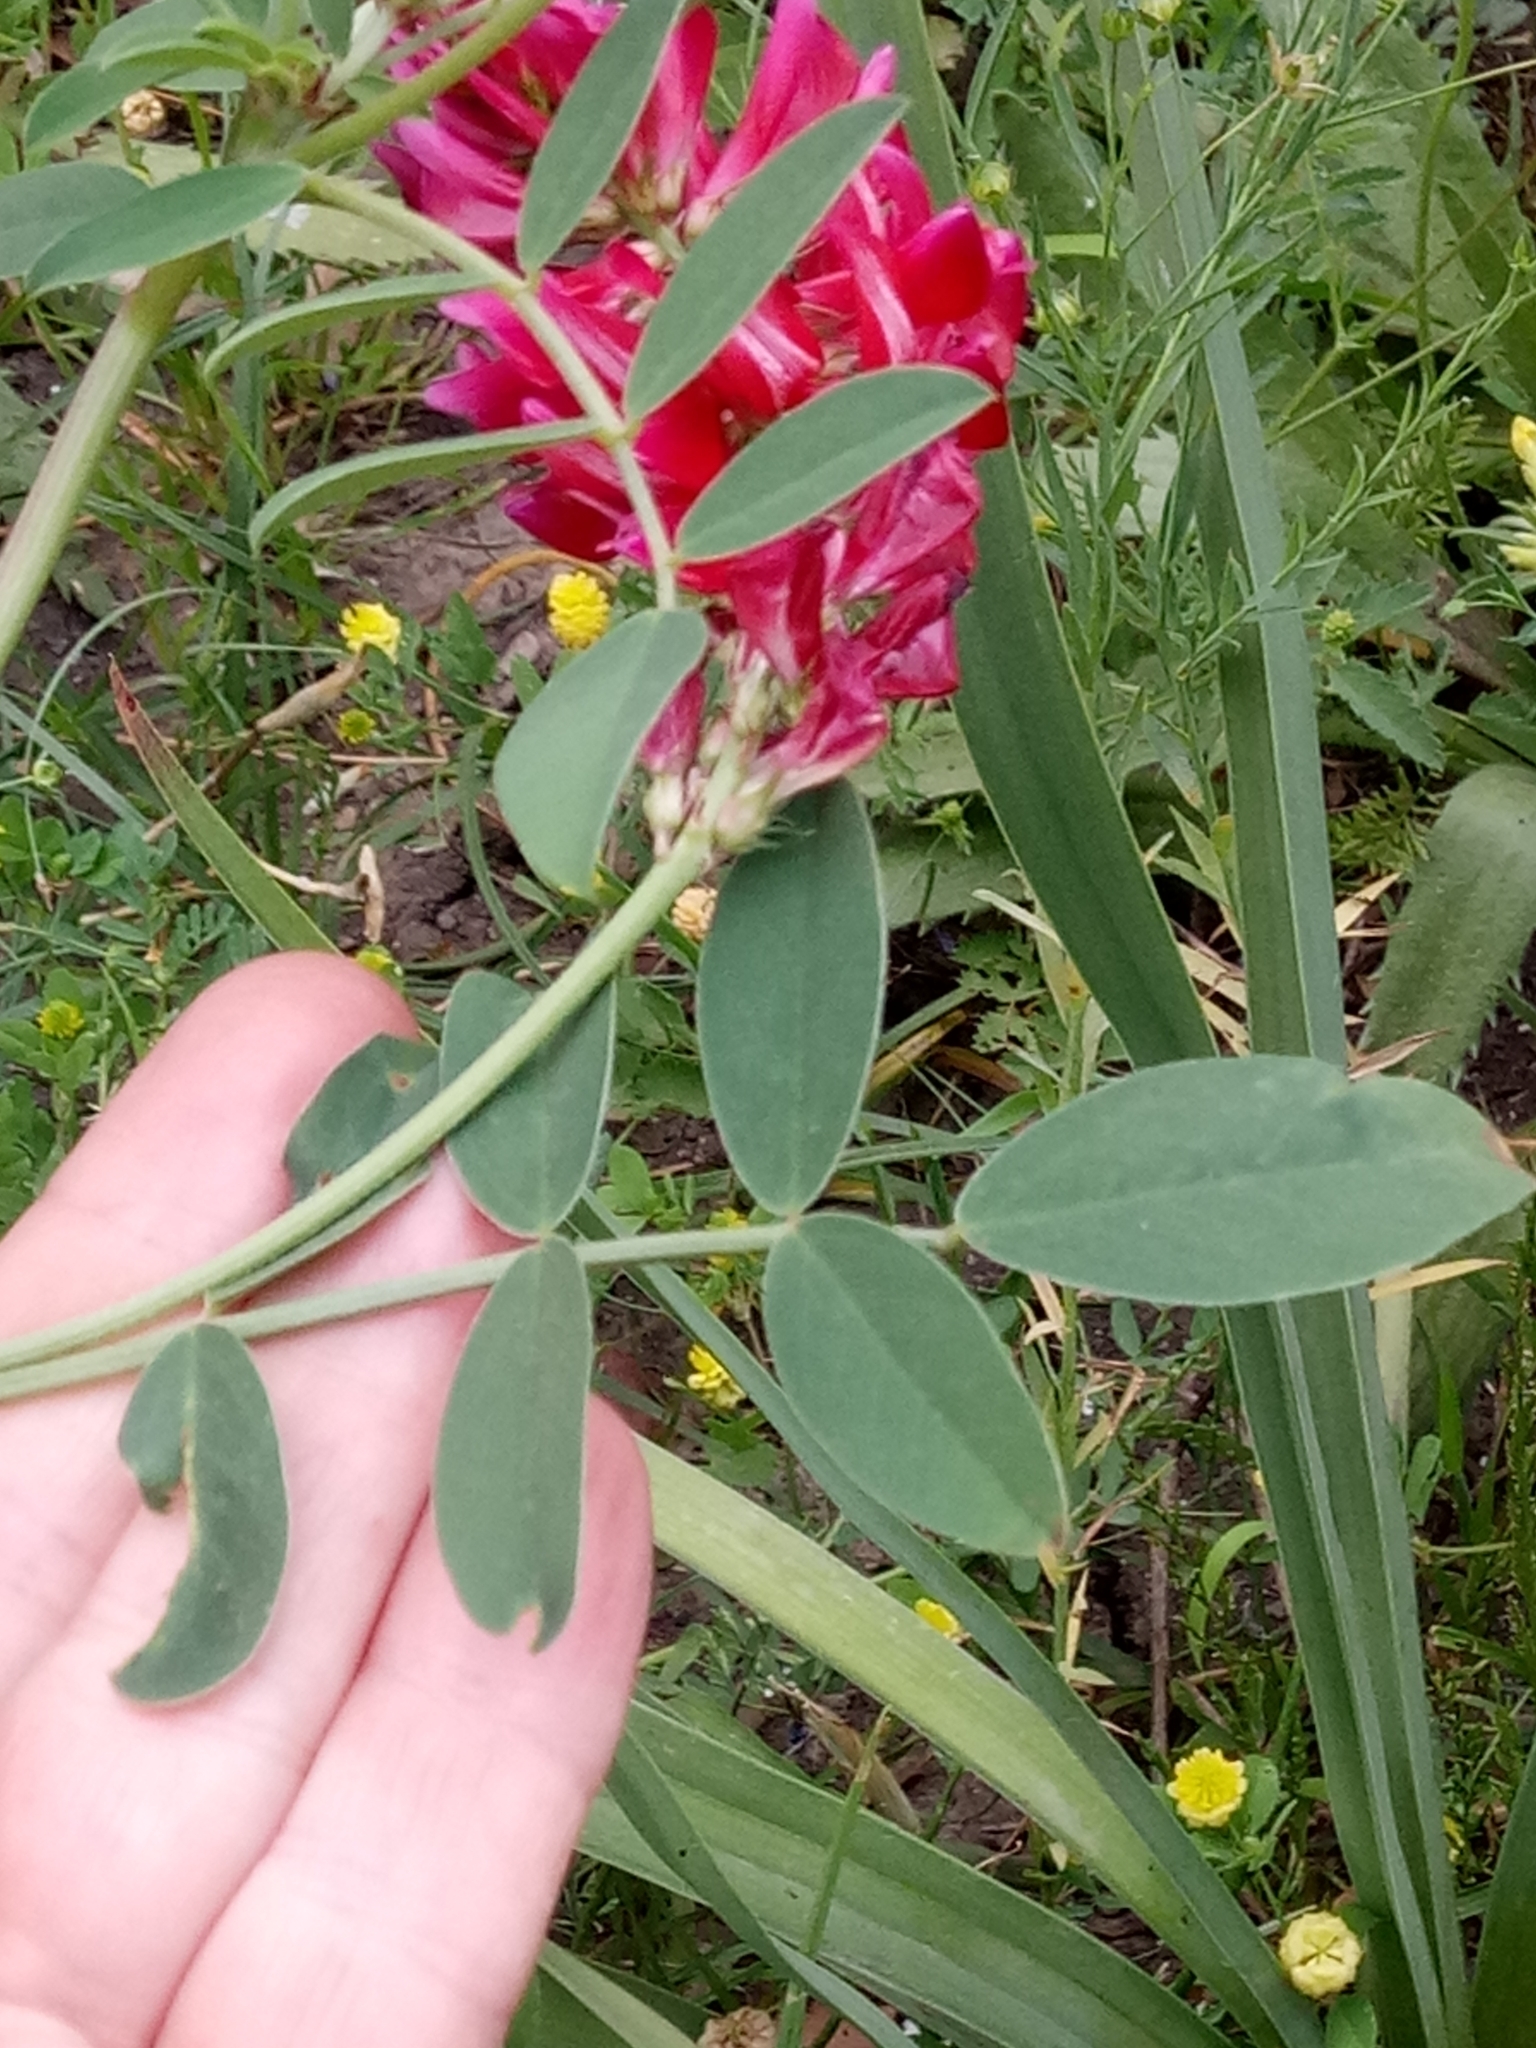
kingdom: Plantae
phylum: Tracheophyta
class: Magnoliopsida
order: Fabales
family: Fabaceae
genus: Sulla
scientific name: Sulla coronaria
